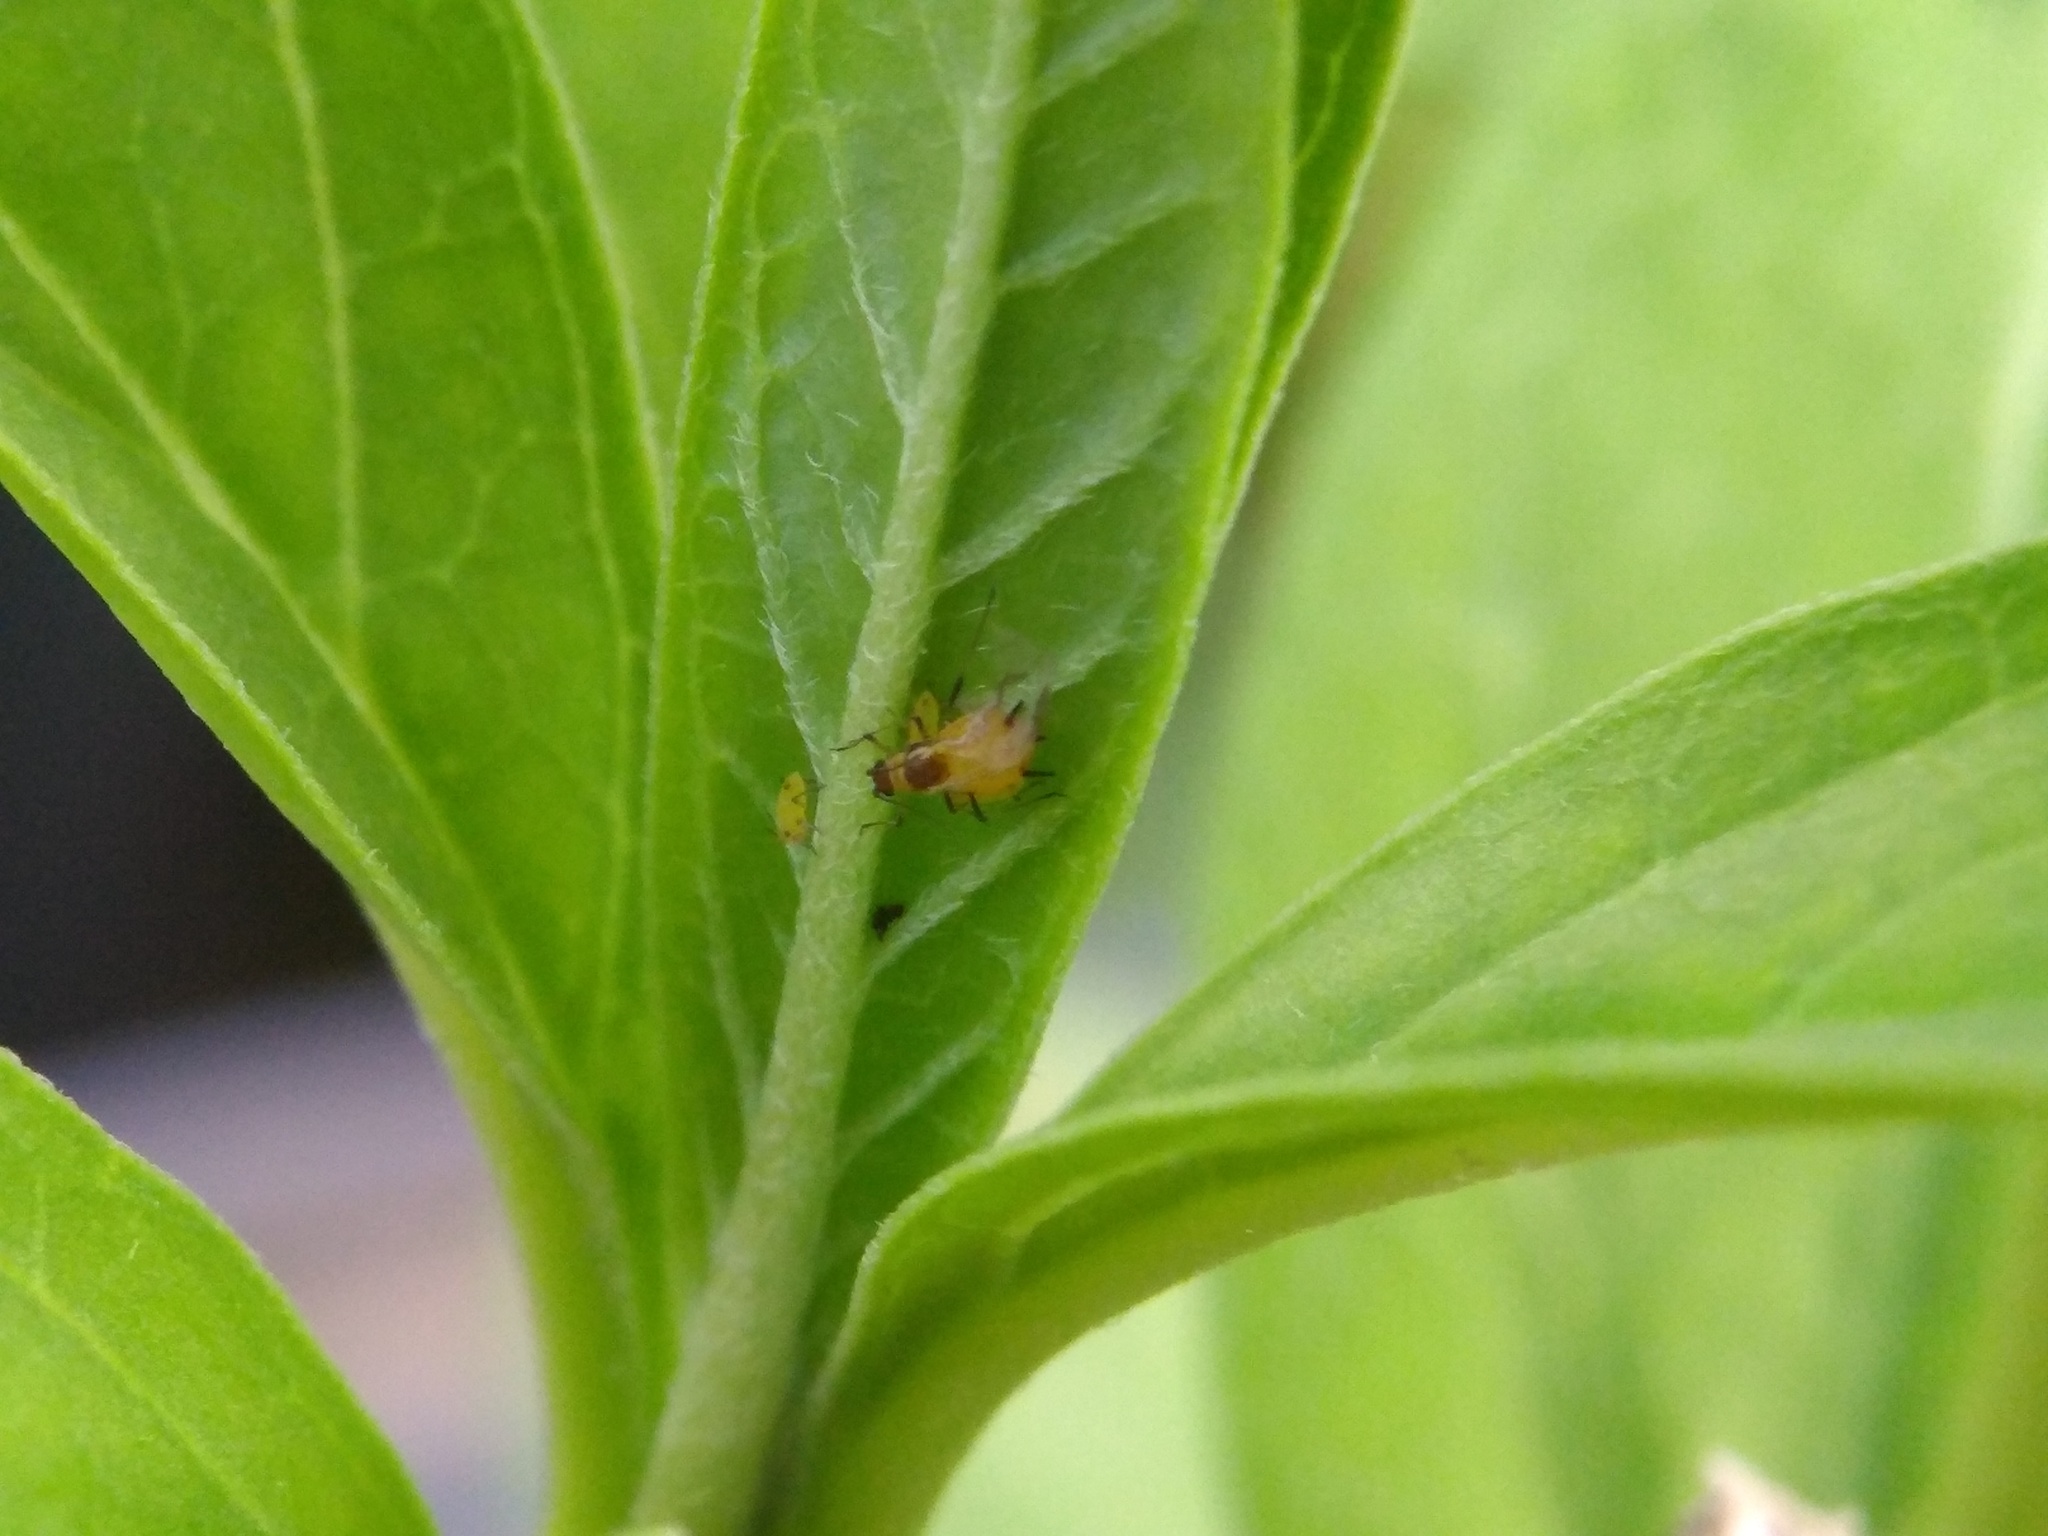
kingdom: Animalia
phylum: Arthropoda
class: Insecta
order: Hemiptera
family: Aphididae
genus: Aphis
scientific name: Aphis nerii
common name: Oleander aphid
